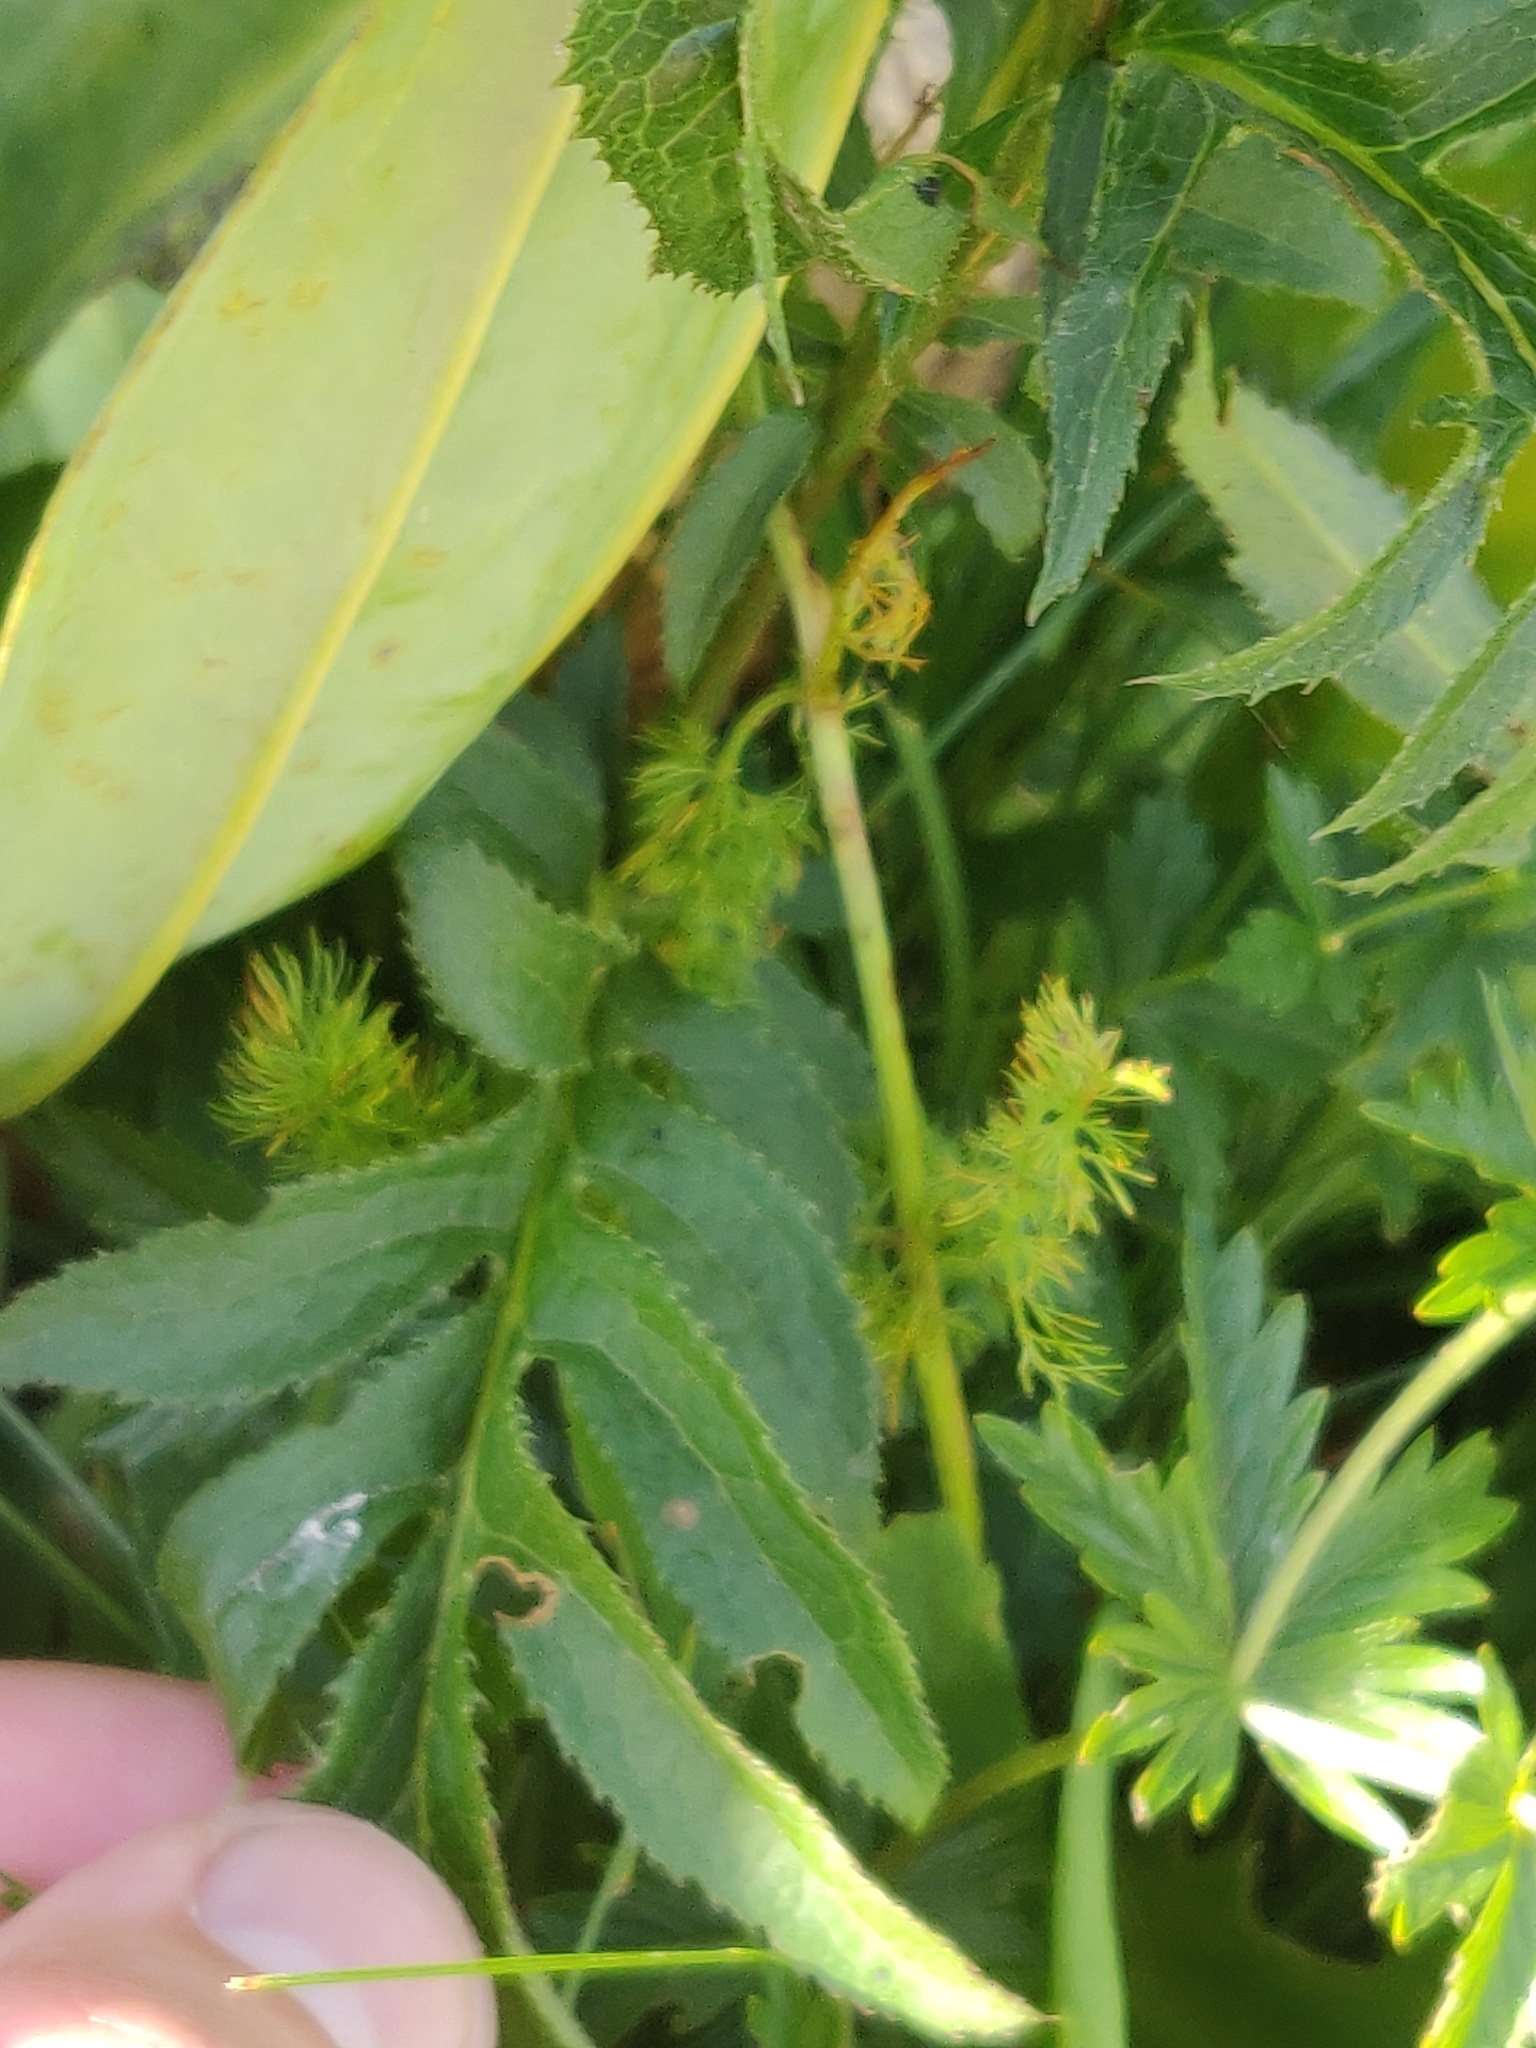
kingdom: Plantae
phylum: Tracheophyta
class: Magnoliopsida
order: Asterales
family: Asteraceae
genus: Serratula
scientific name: Serratula tinctoria
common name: Saw-wort
